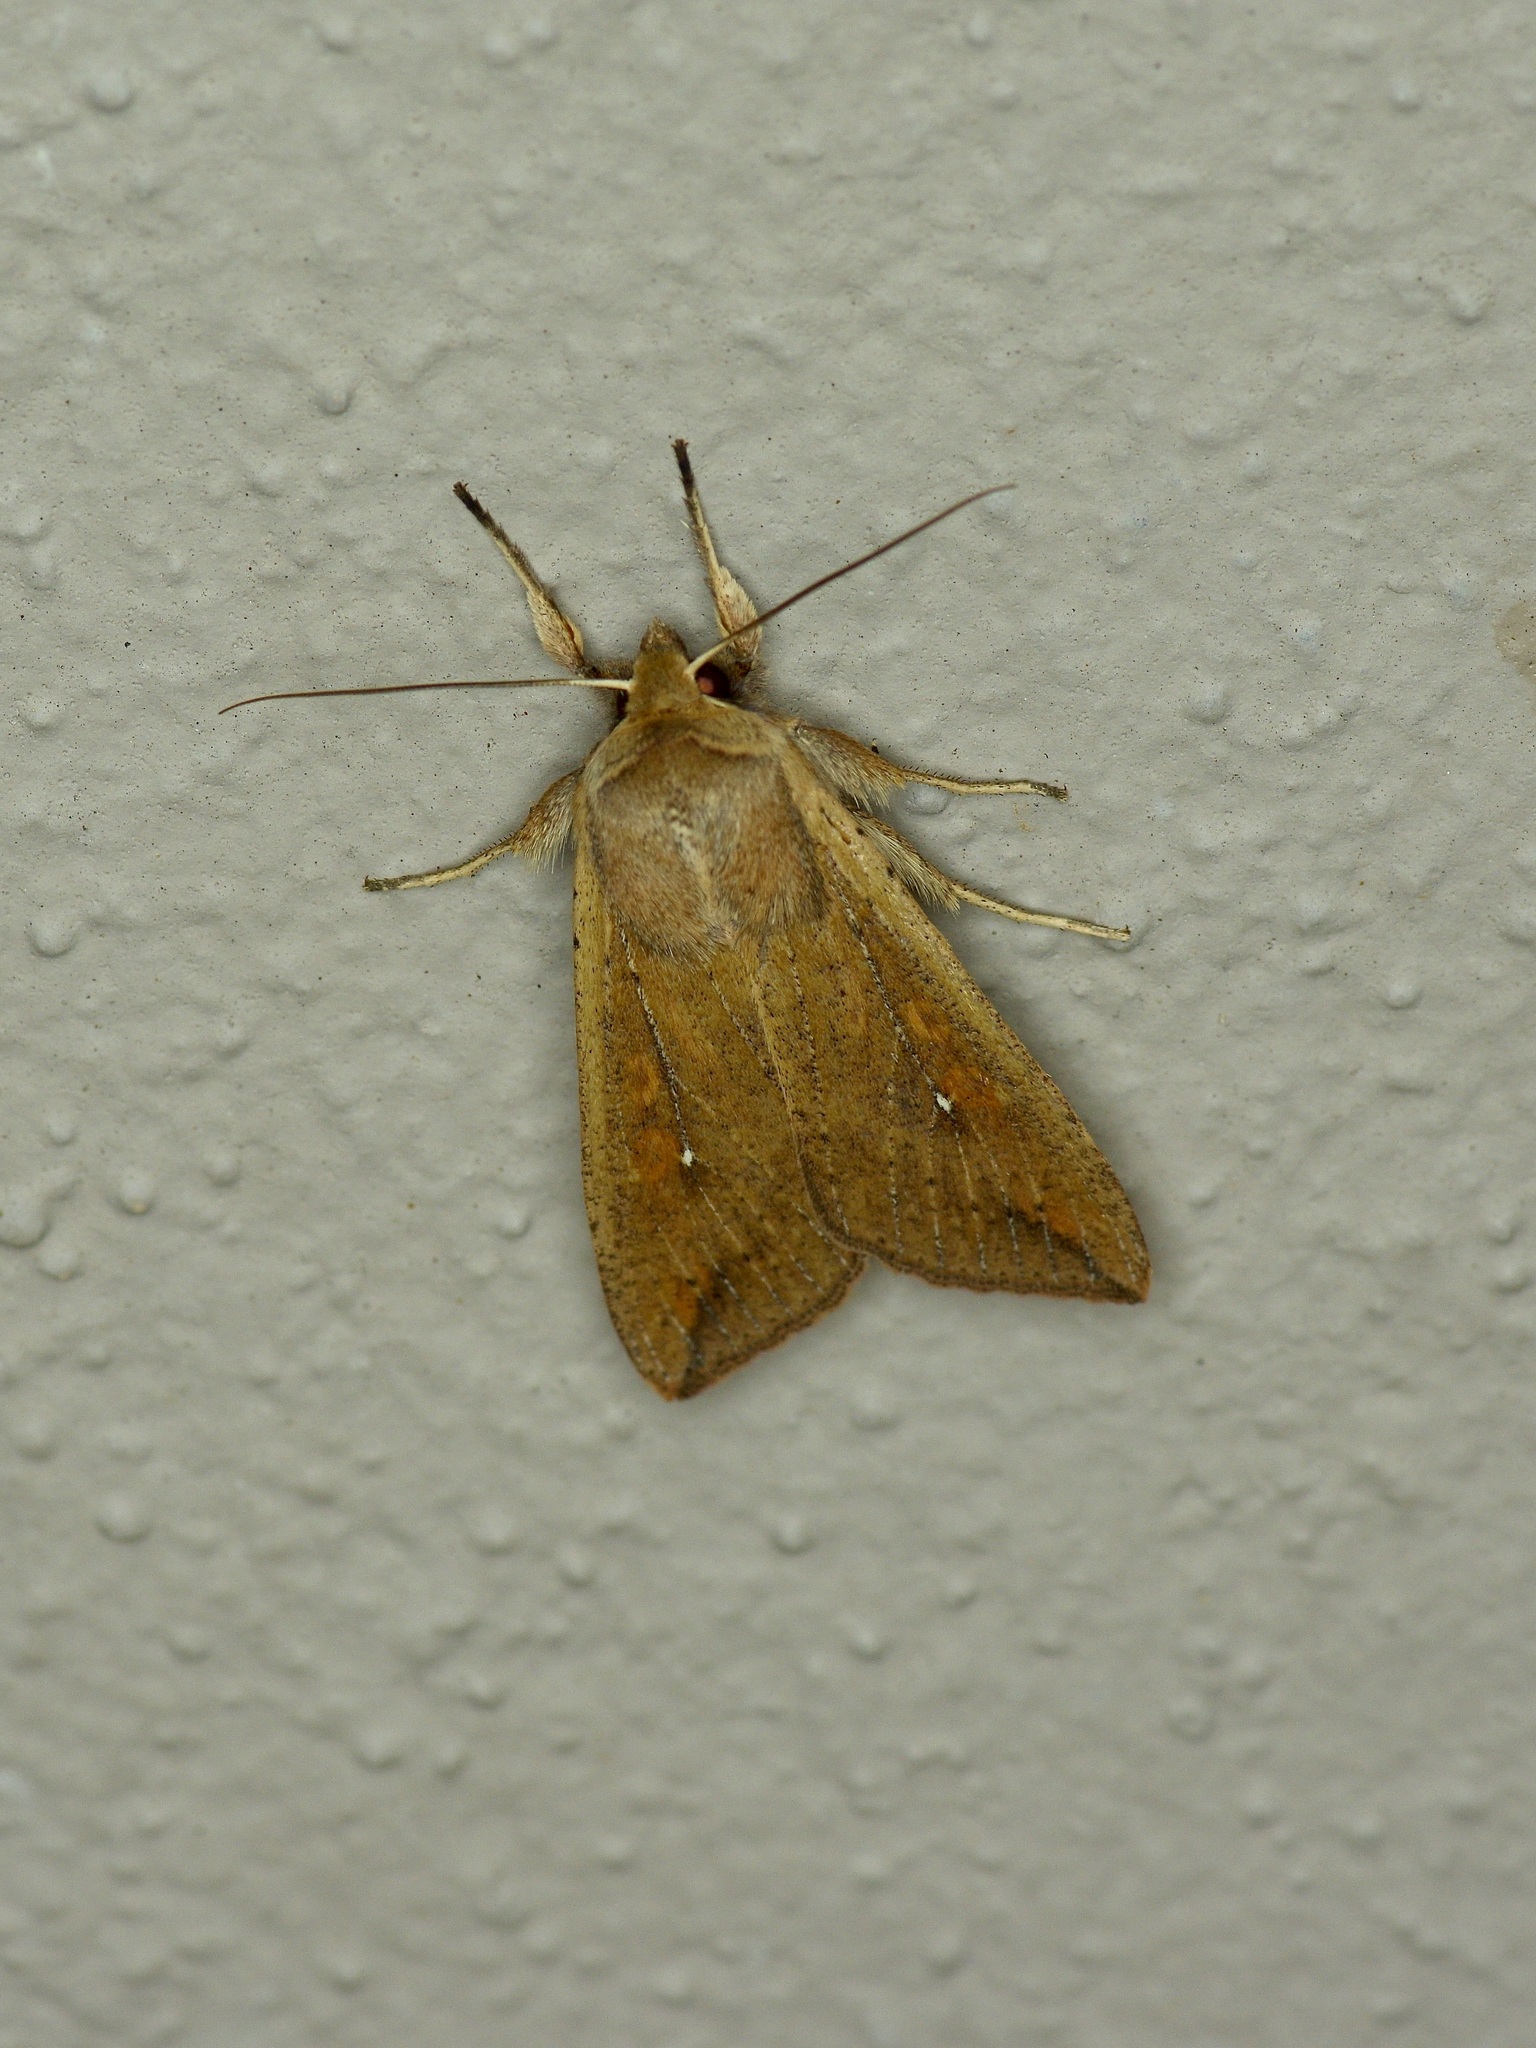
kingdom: Animalia
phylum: Arthropoda
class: Insecta
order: Lepidoptera
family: Noctuidae
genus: Mythimna
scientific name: Mythimna unipuncta
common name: White-speck
